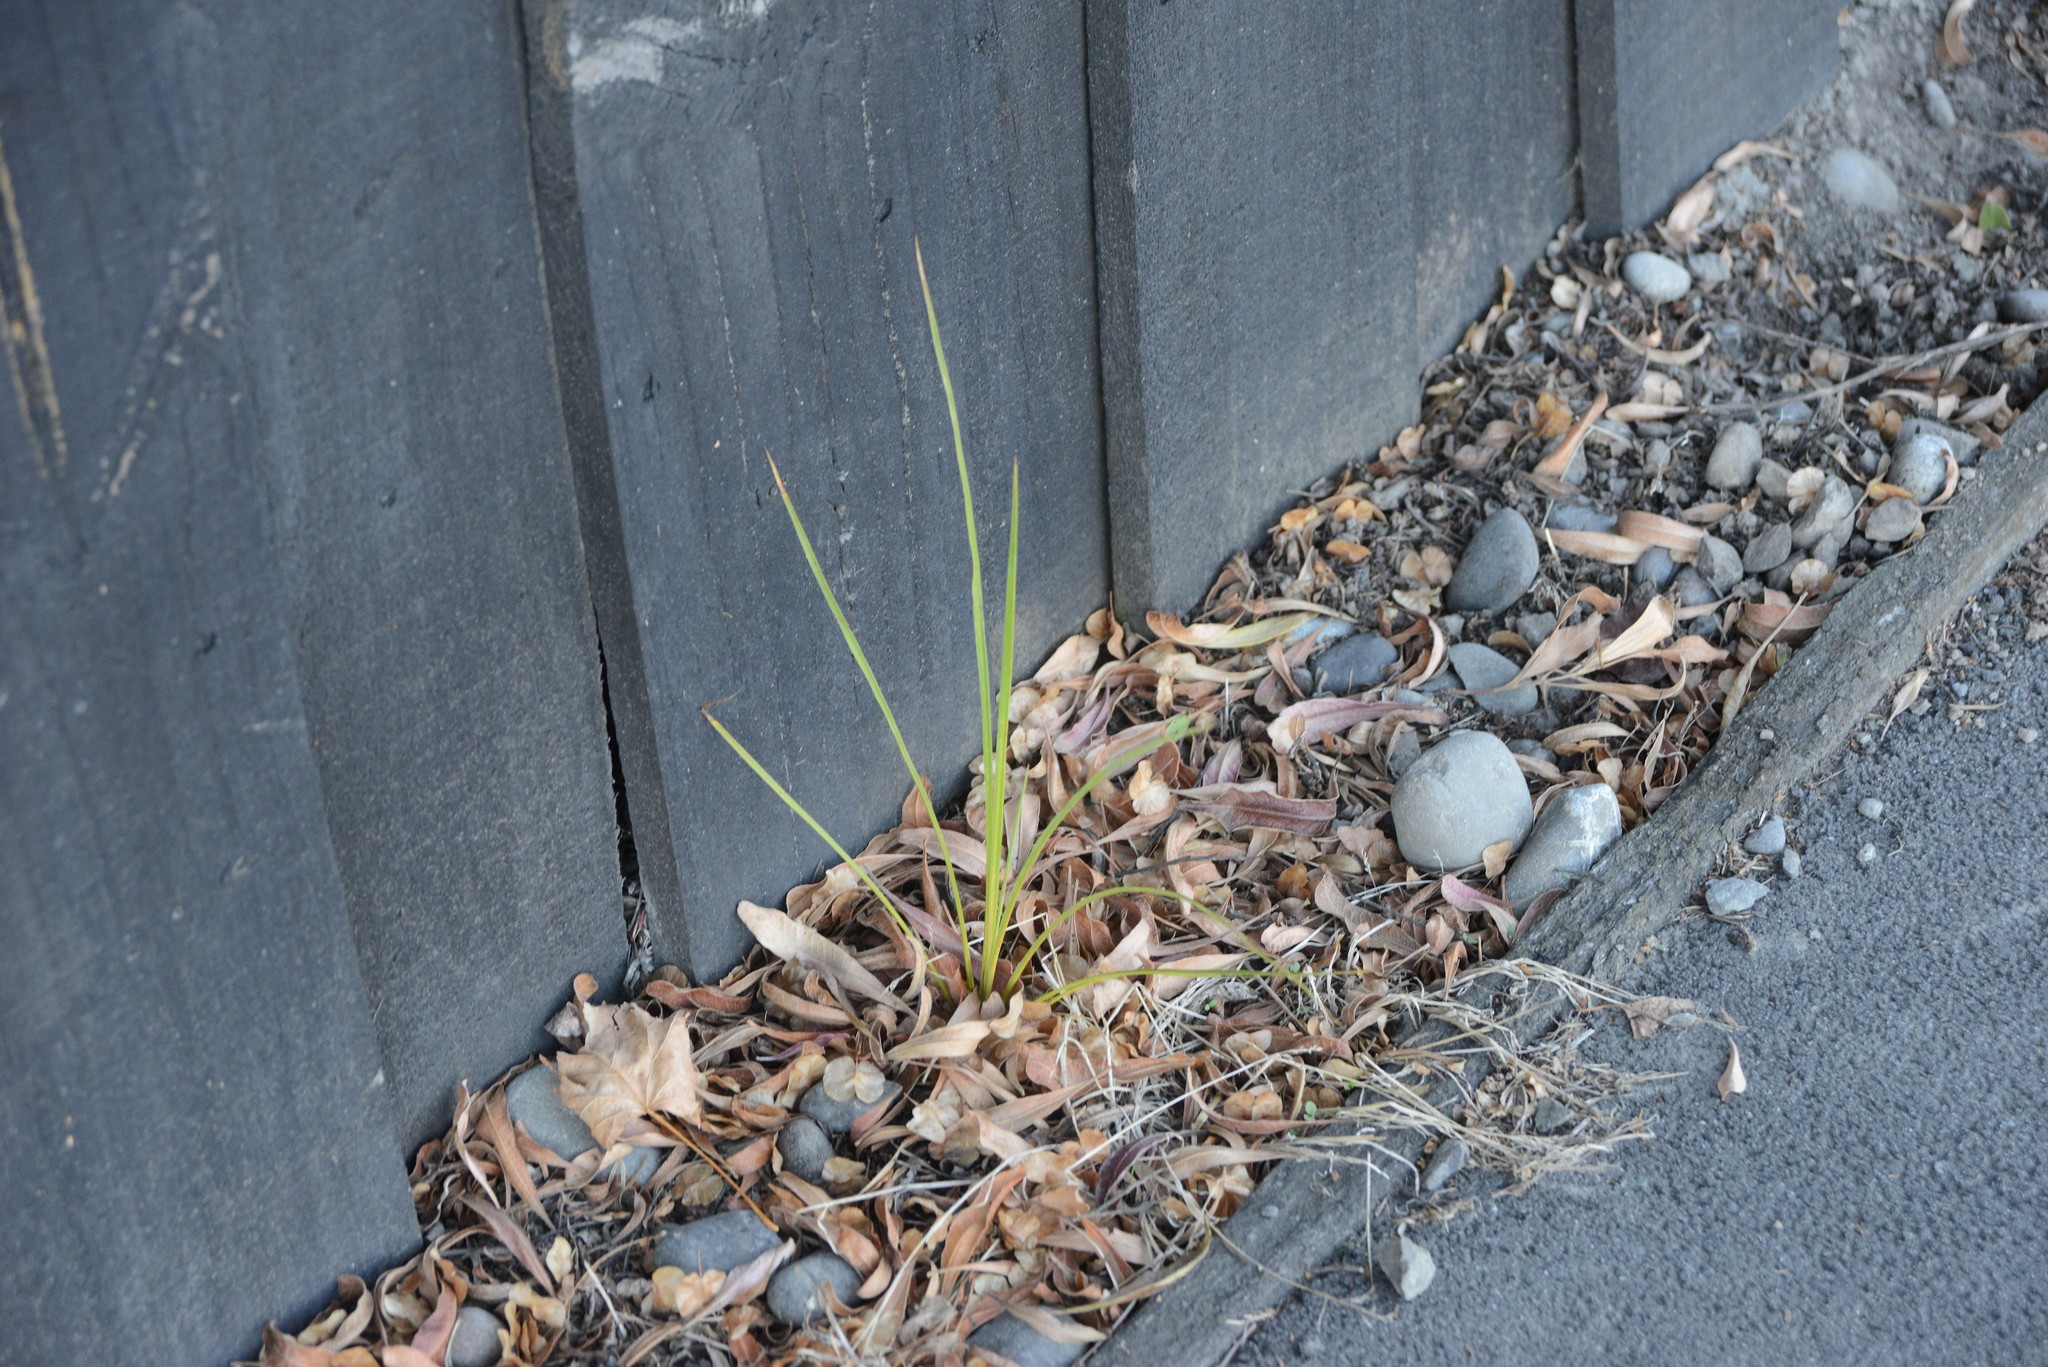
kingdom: Plantae
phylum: Tracheophyta
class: Liliopsida
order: Asparagales
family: Asparagaceae
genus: Cordyline
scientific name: Cordyline australis
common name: Cabbage-palm
